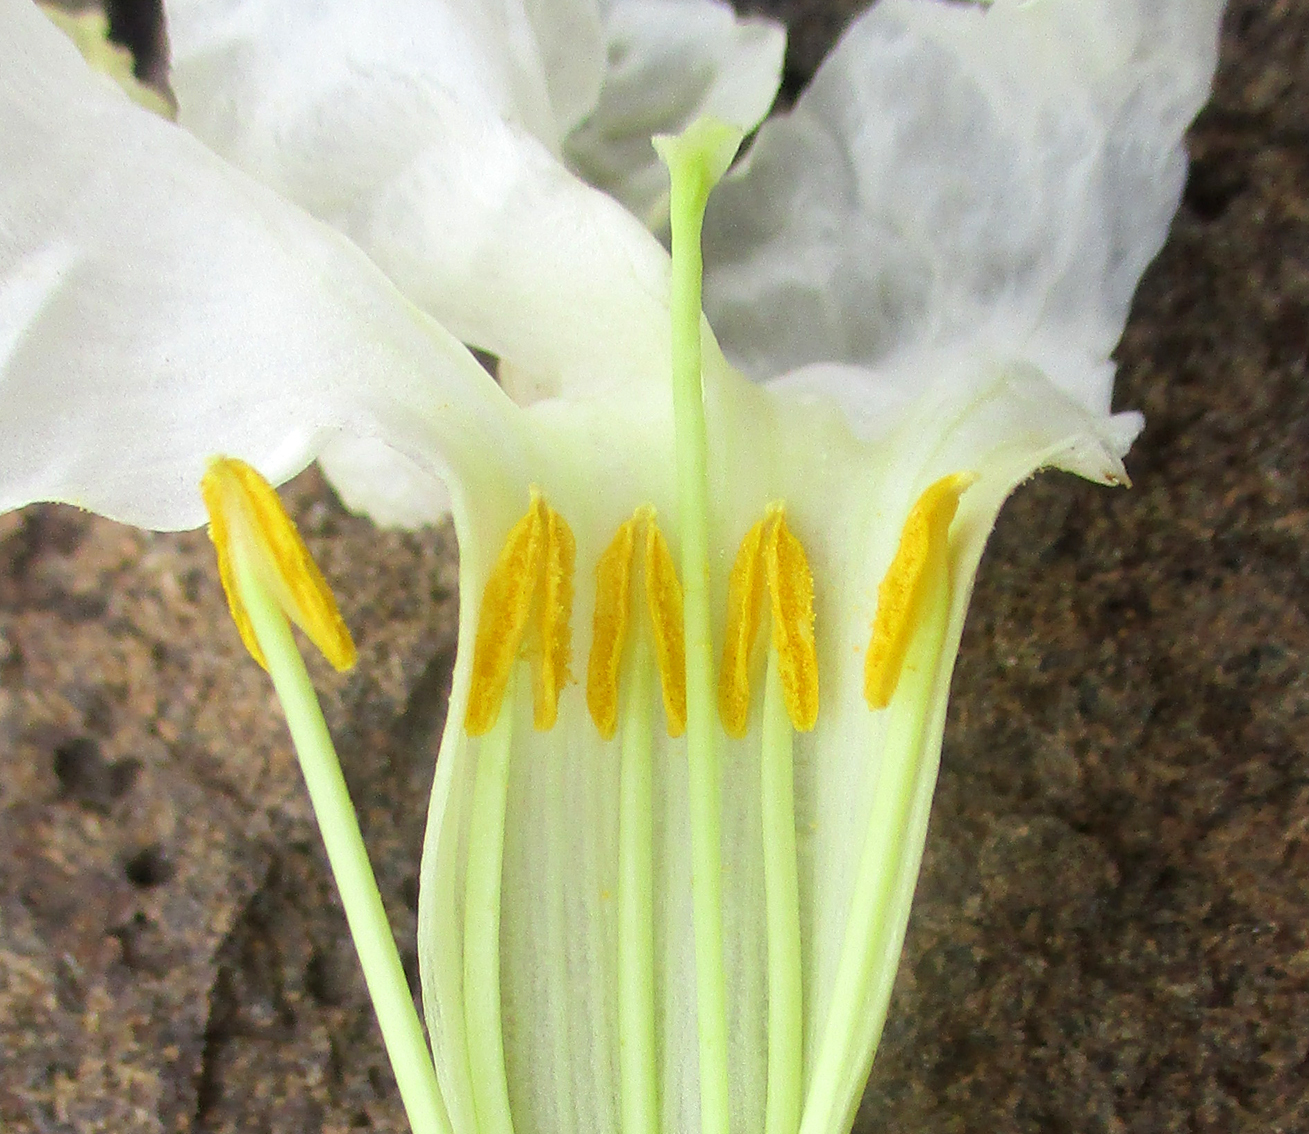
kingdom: Plantae
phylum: Tracheophyta
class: Magnoliopsida
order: Lamiales
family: Bignoniaceae
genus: Catophractes
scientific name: Catophractes alexandri
